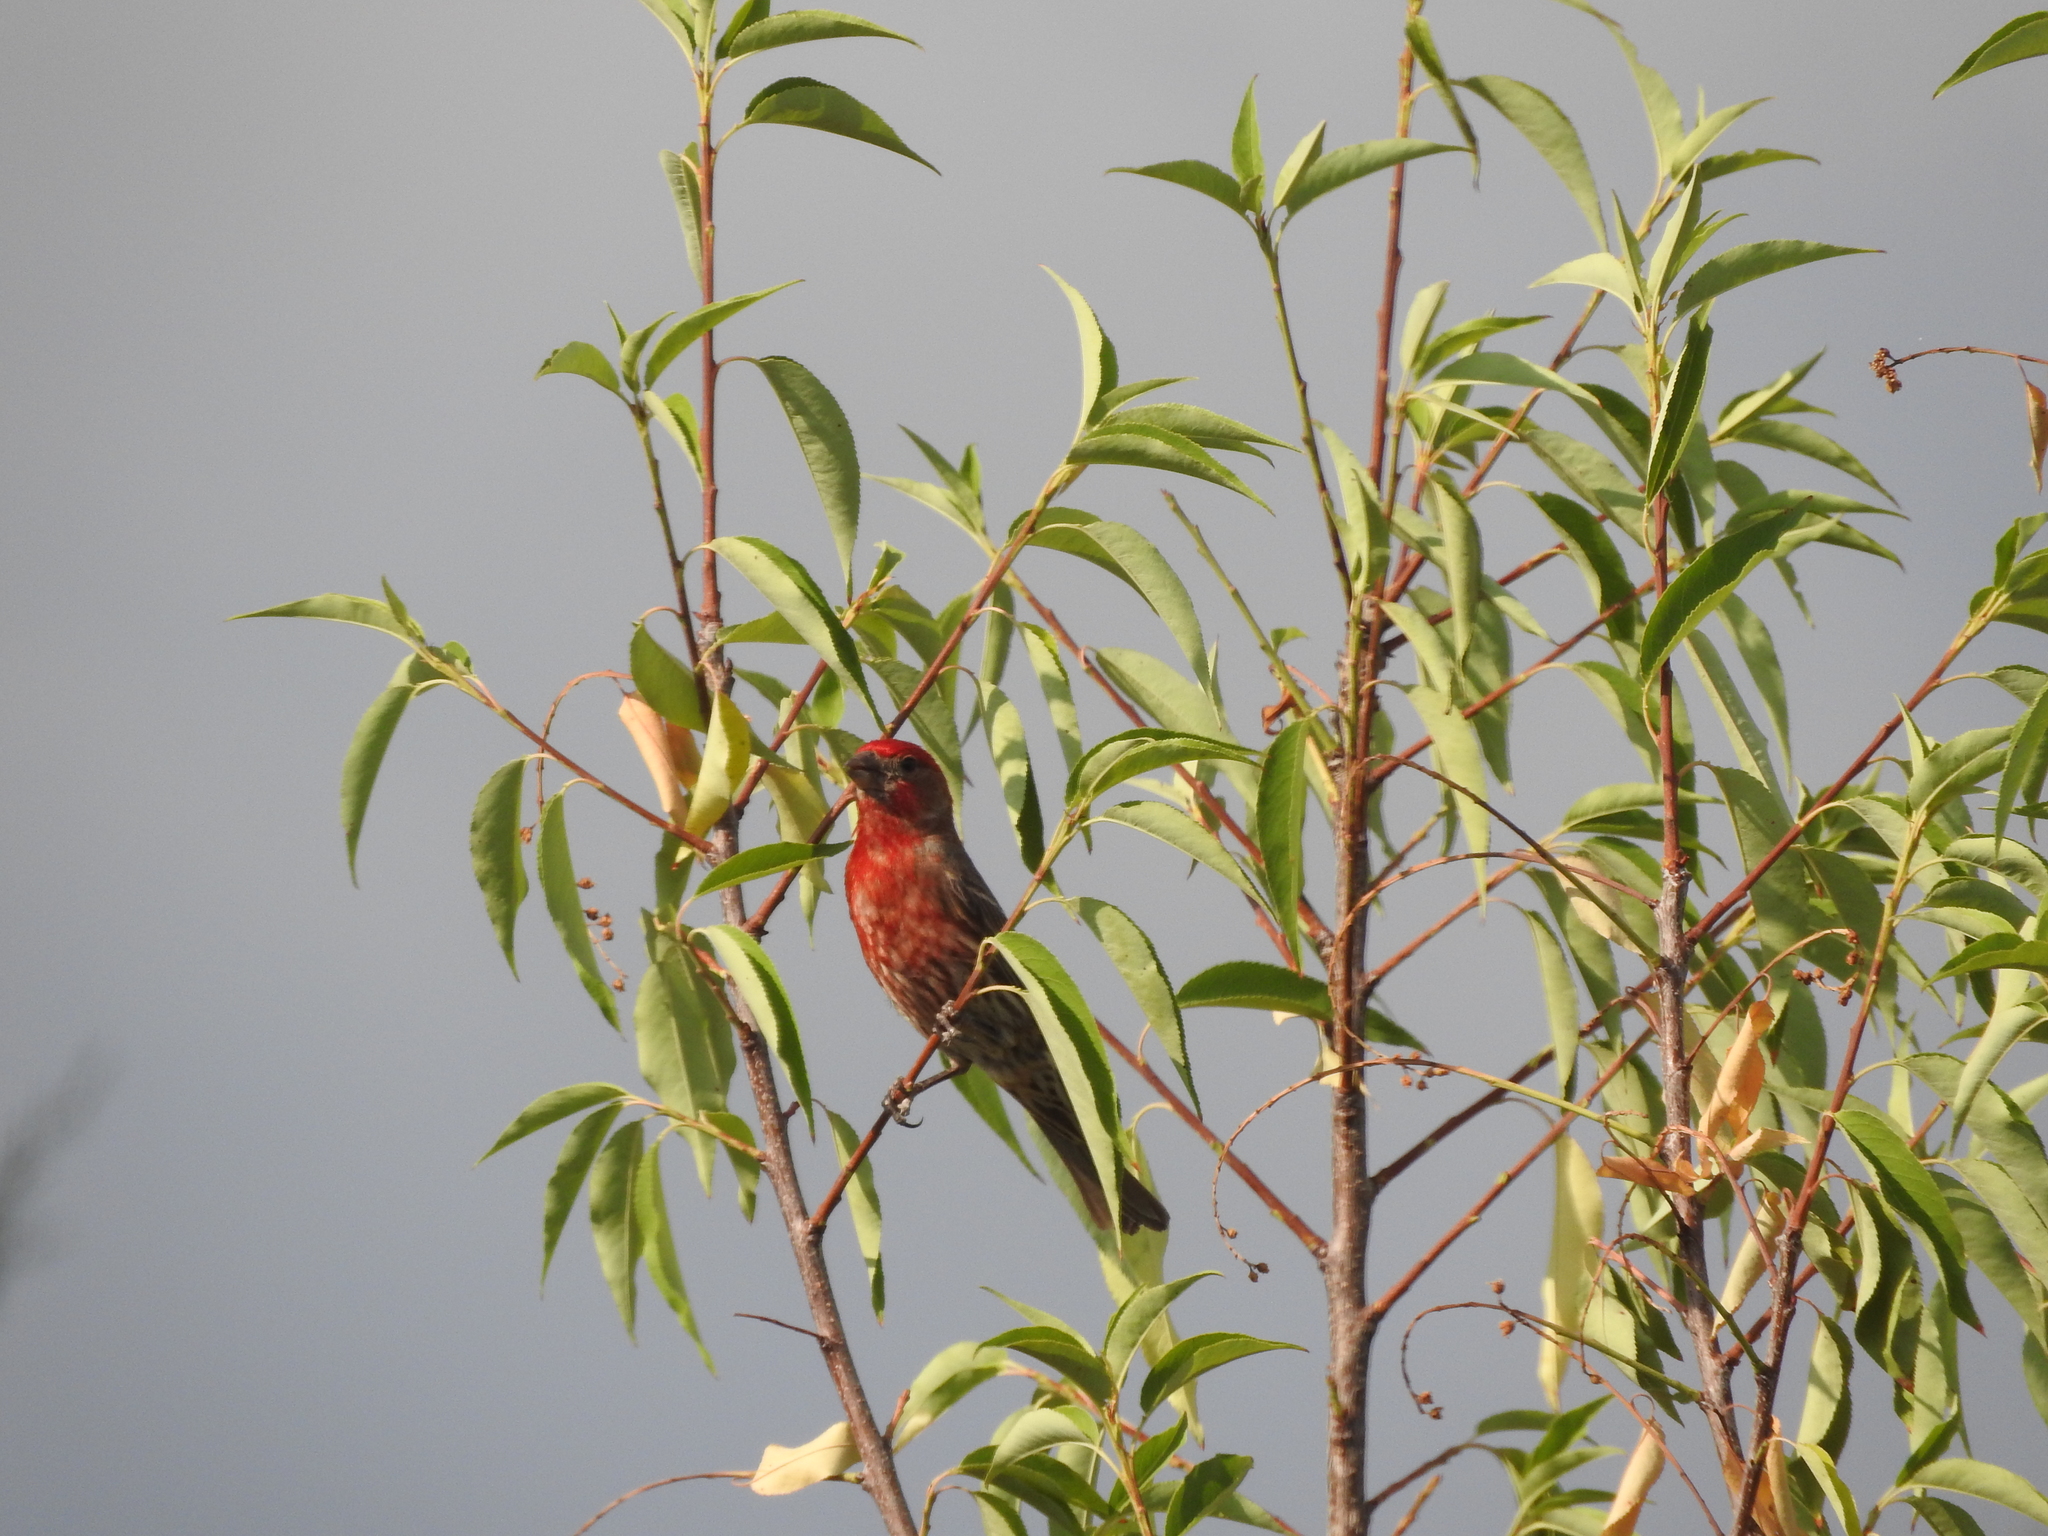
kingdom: Animalia
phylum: Chordata
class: Aves
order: Passeriformes
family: Fringillidae
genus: Haemorhous
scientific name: Haemorhous mexicanus
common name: House finch
